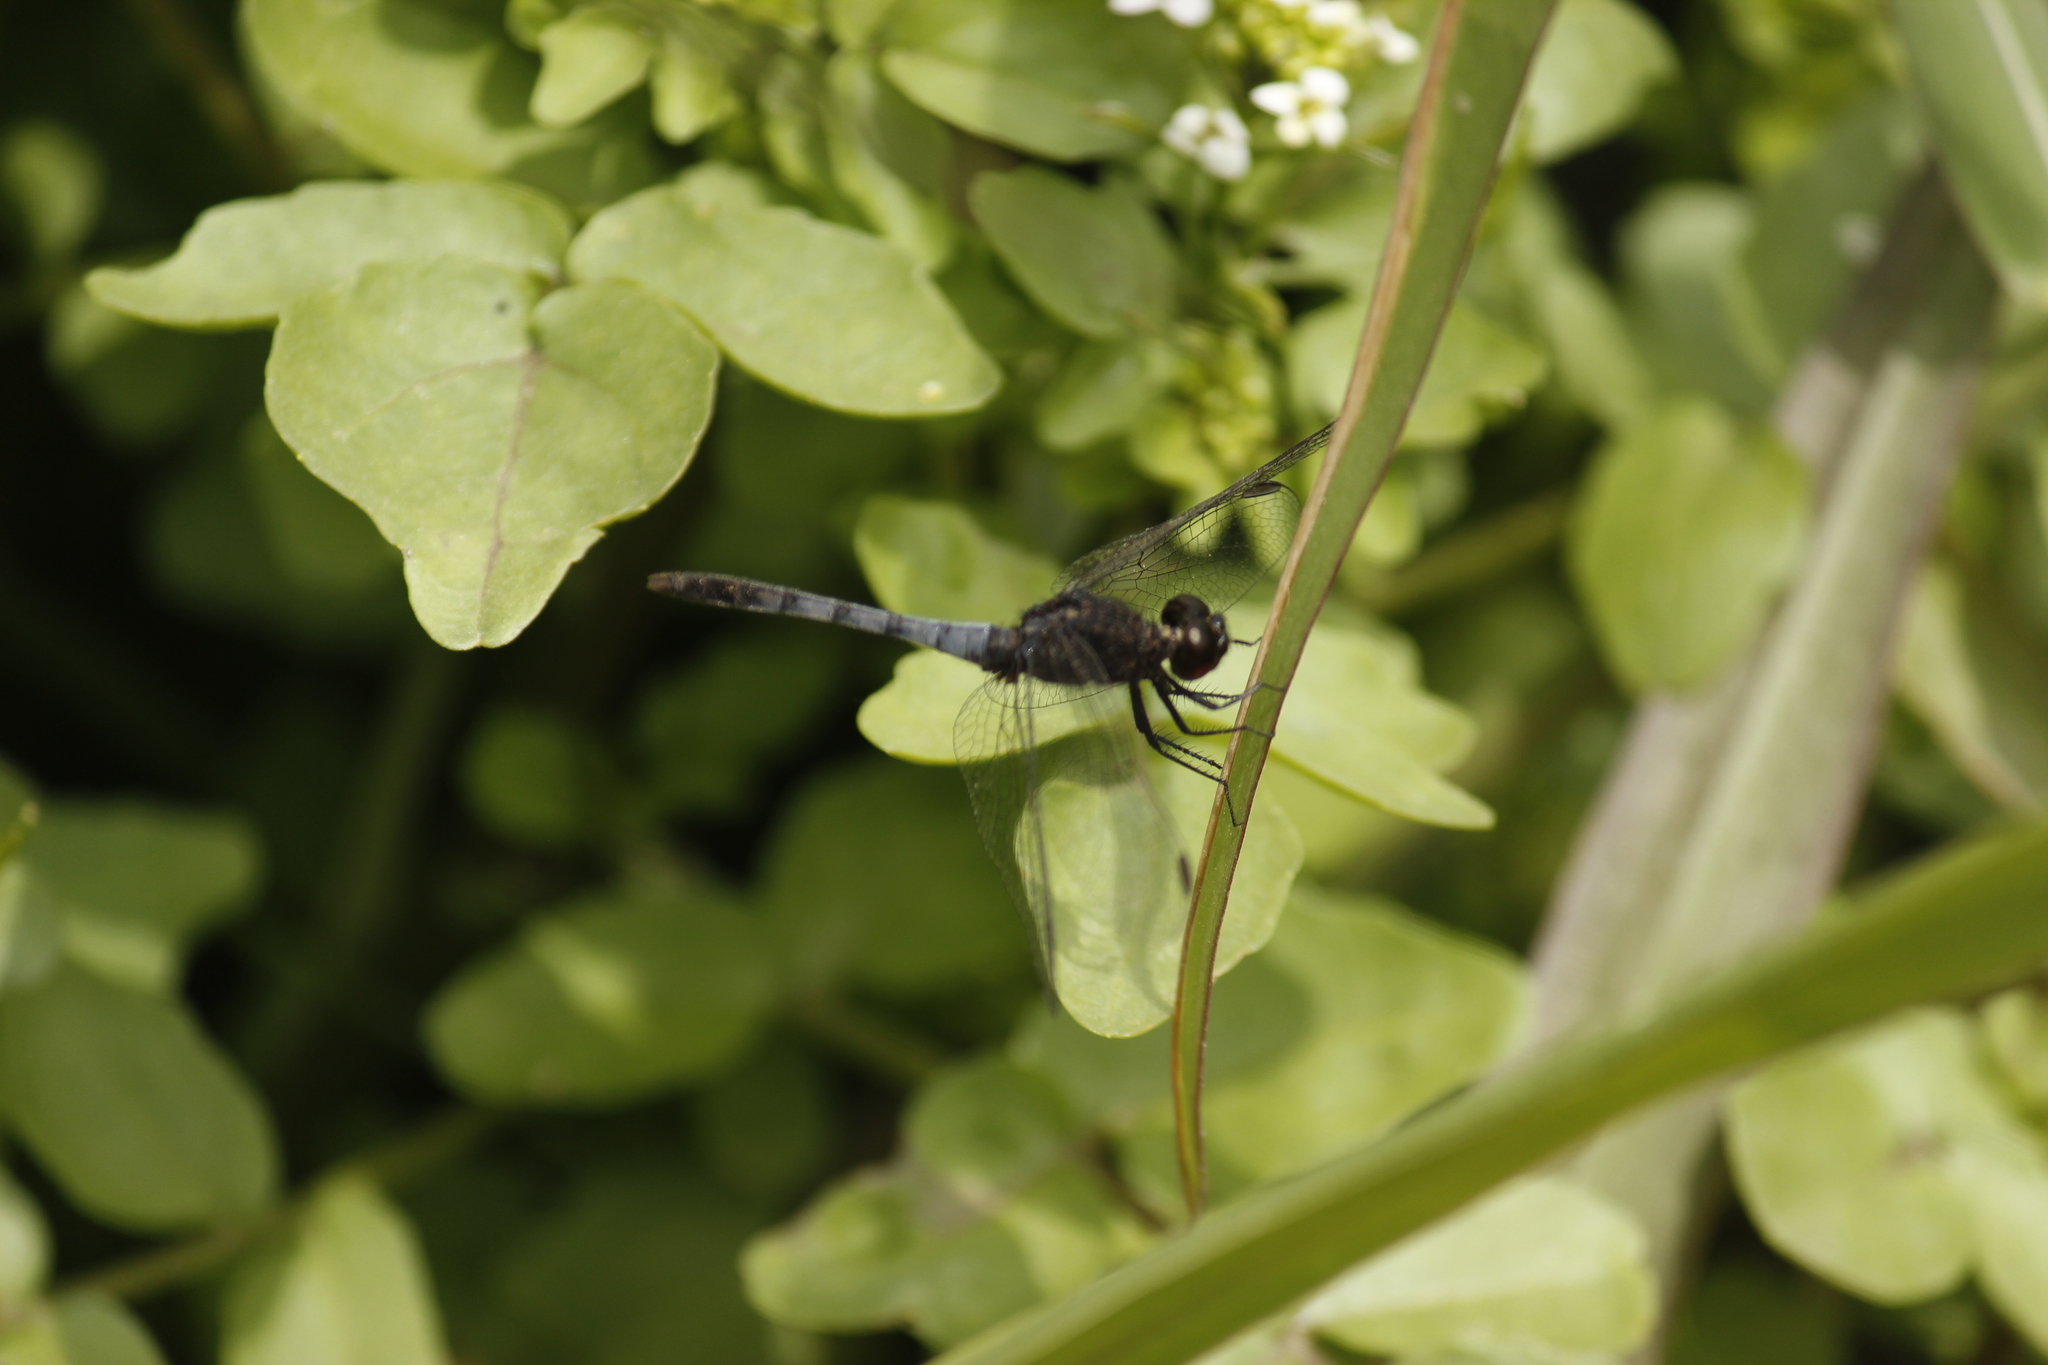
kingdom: Animalia
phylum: Arthropoda
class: Insecta
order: Odonata
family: Libellulidae
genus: Erythrodiplax
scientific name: Erythrodiplax cleopatra
